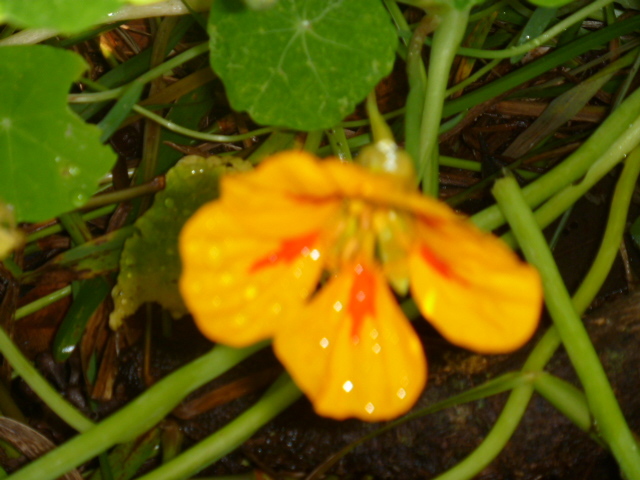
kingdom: Plantae
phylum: Tracheophyta
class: Magnoliopsida
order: Brassicales
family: Tropaeolaceae
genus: Tropaeolum
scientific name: Tropaeolum majus
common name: Nasturtium
